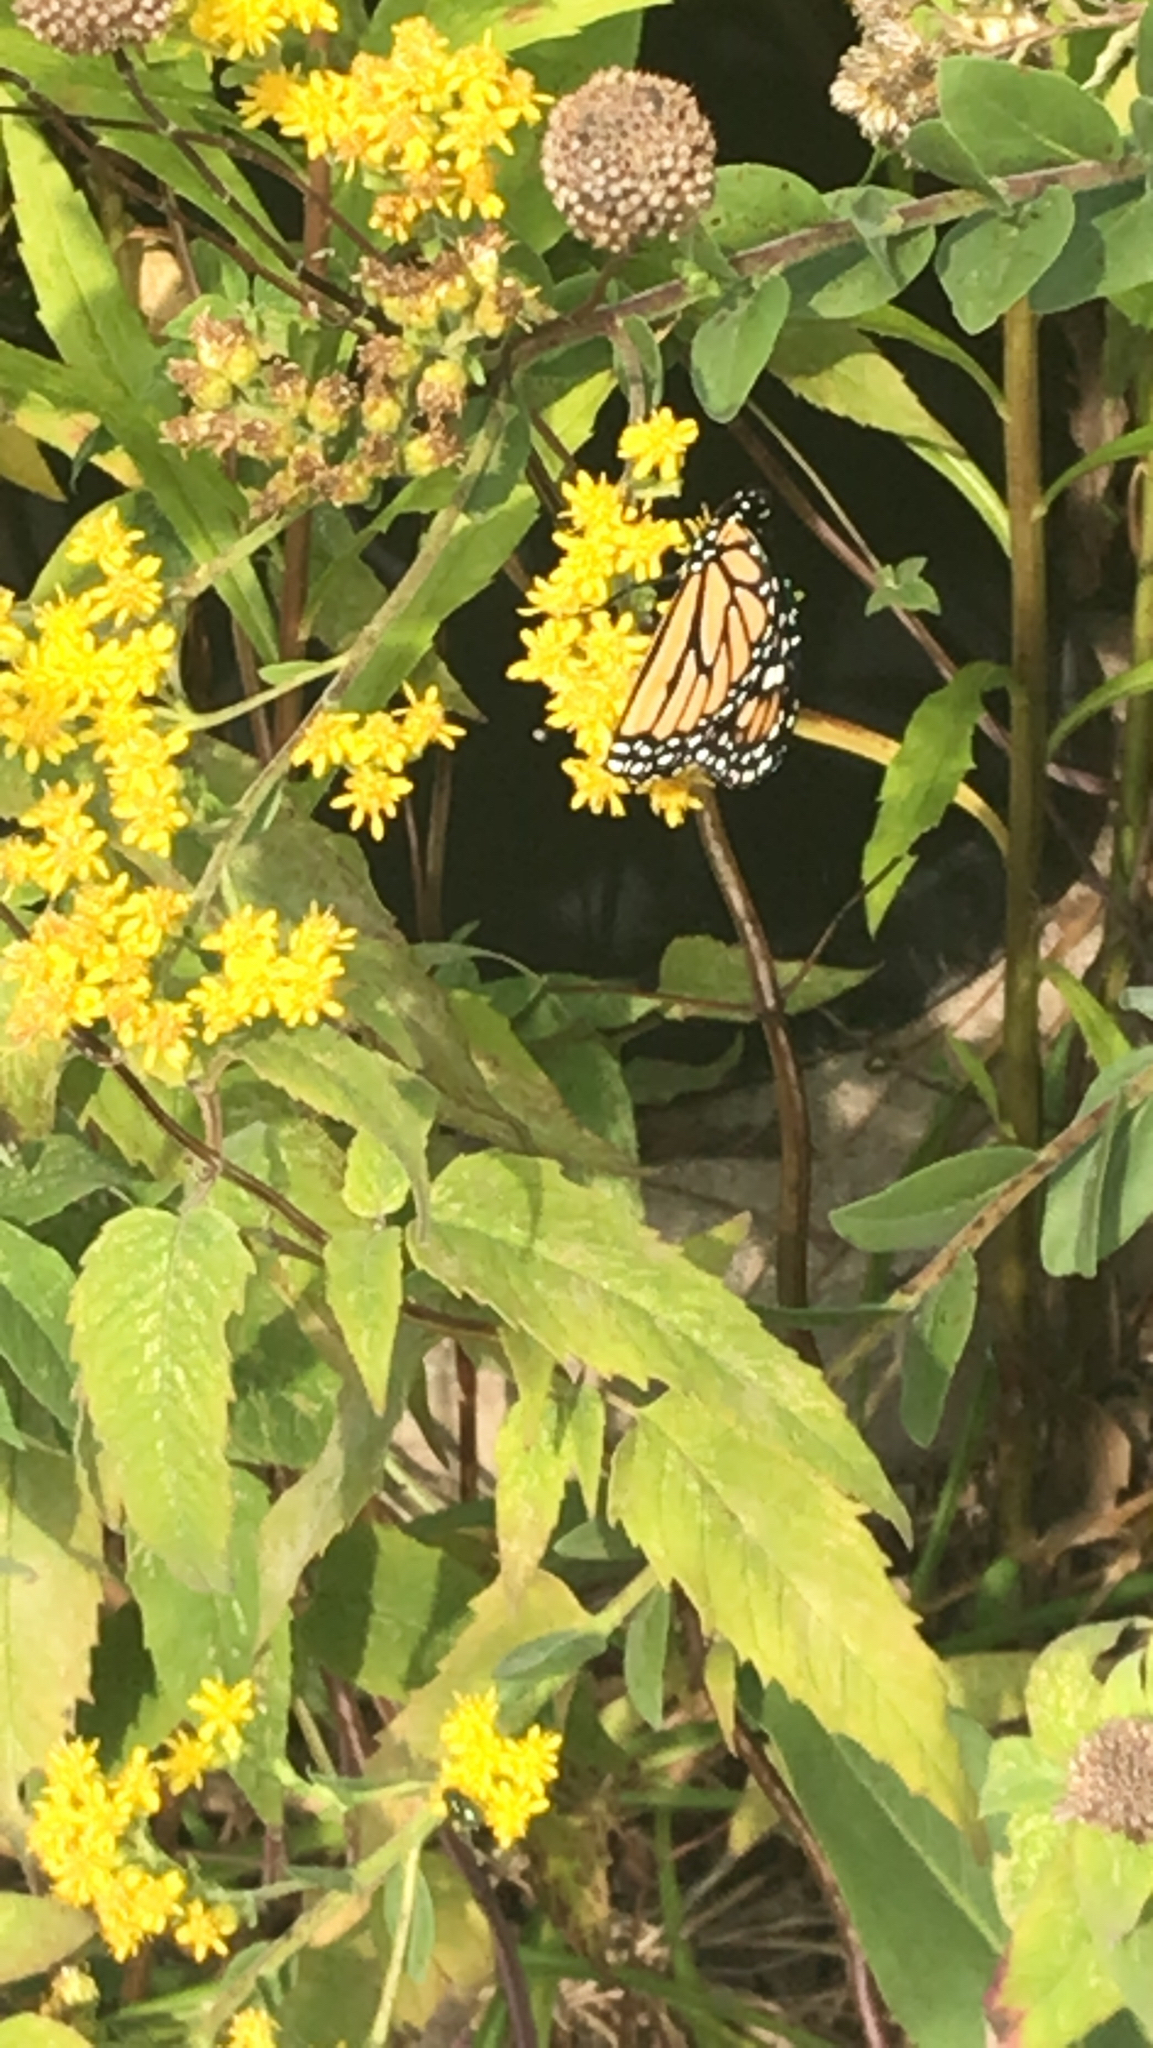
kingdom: Animalia
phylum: Arthropoda
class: Insecta
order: Lepidoptera
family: Nymphalidae
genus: Danaus
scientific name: Danaus plexippus
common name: Monarch
